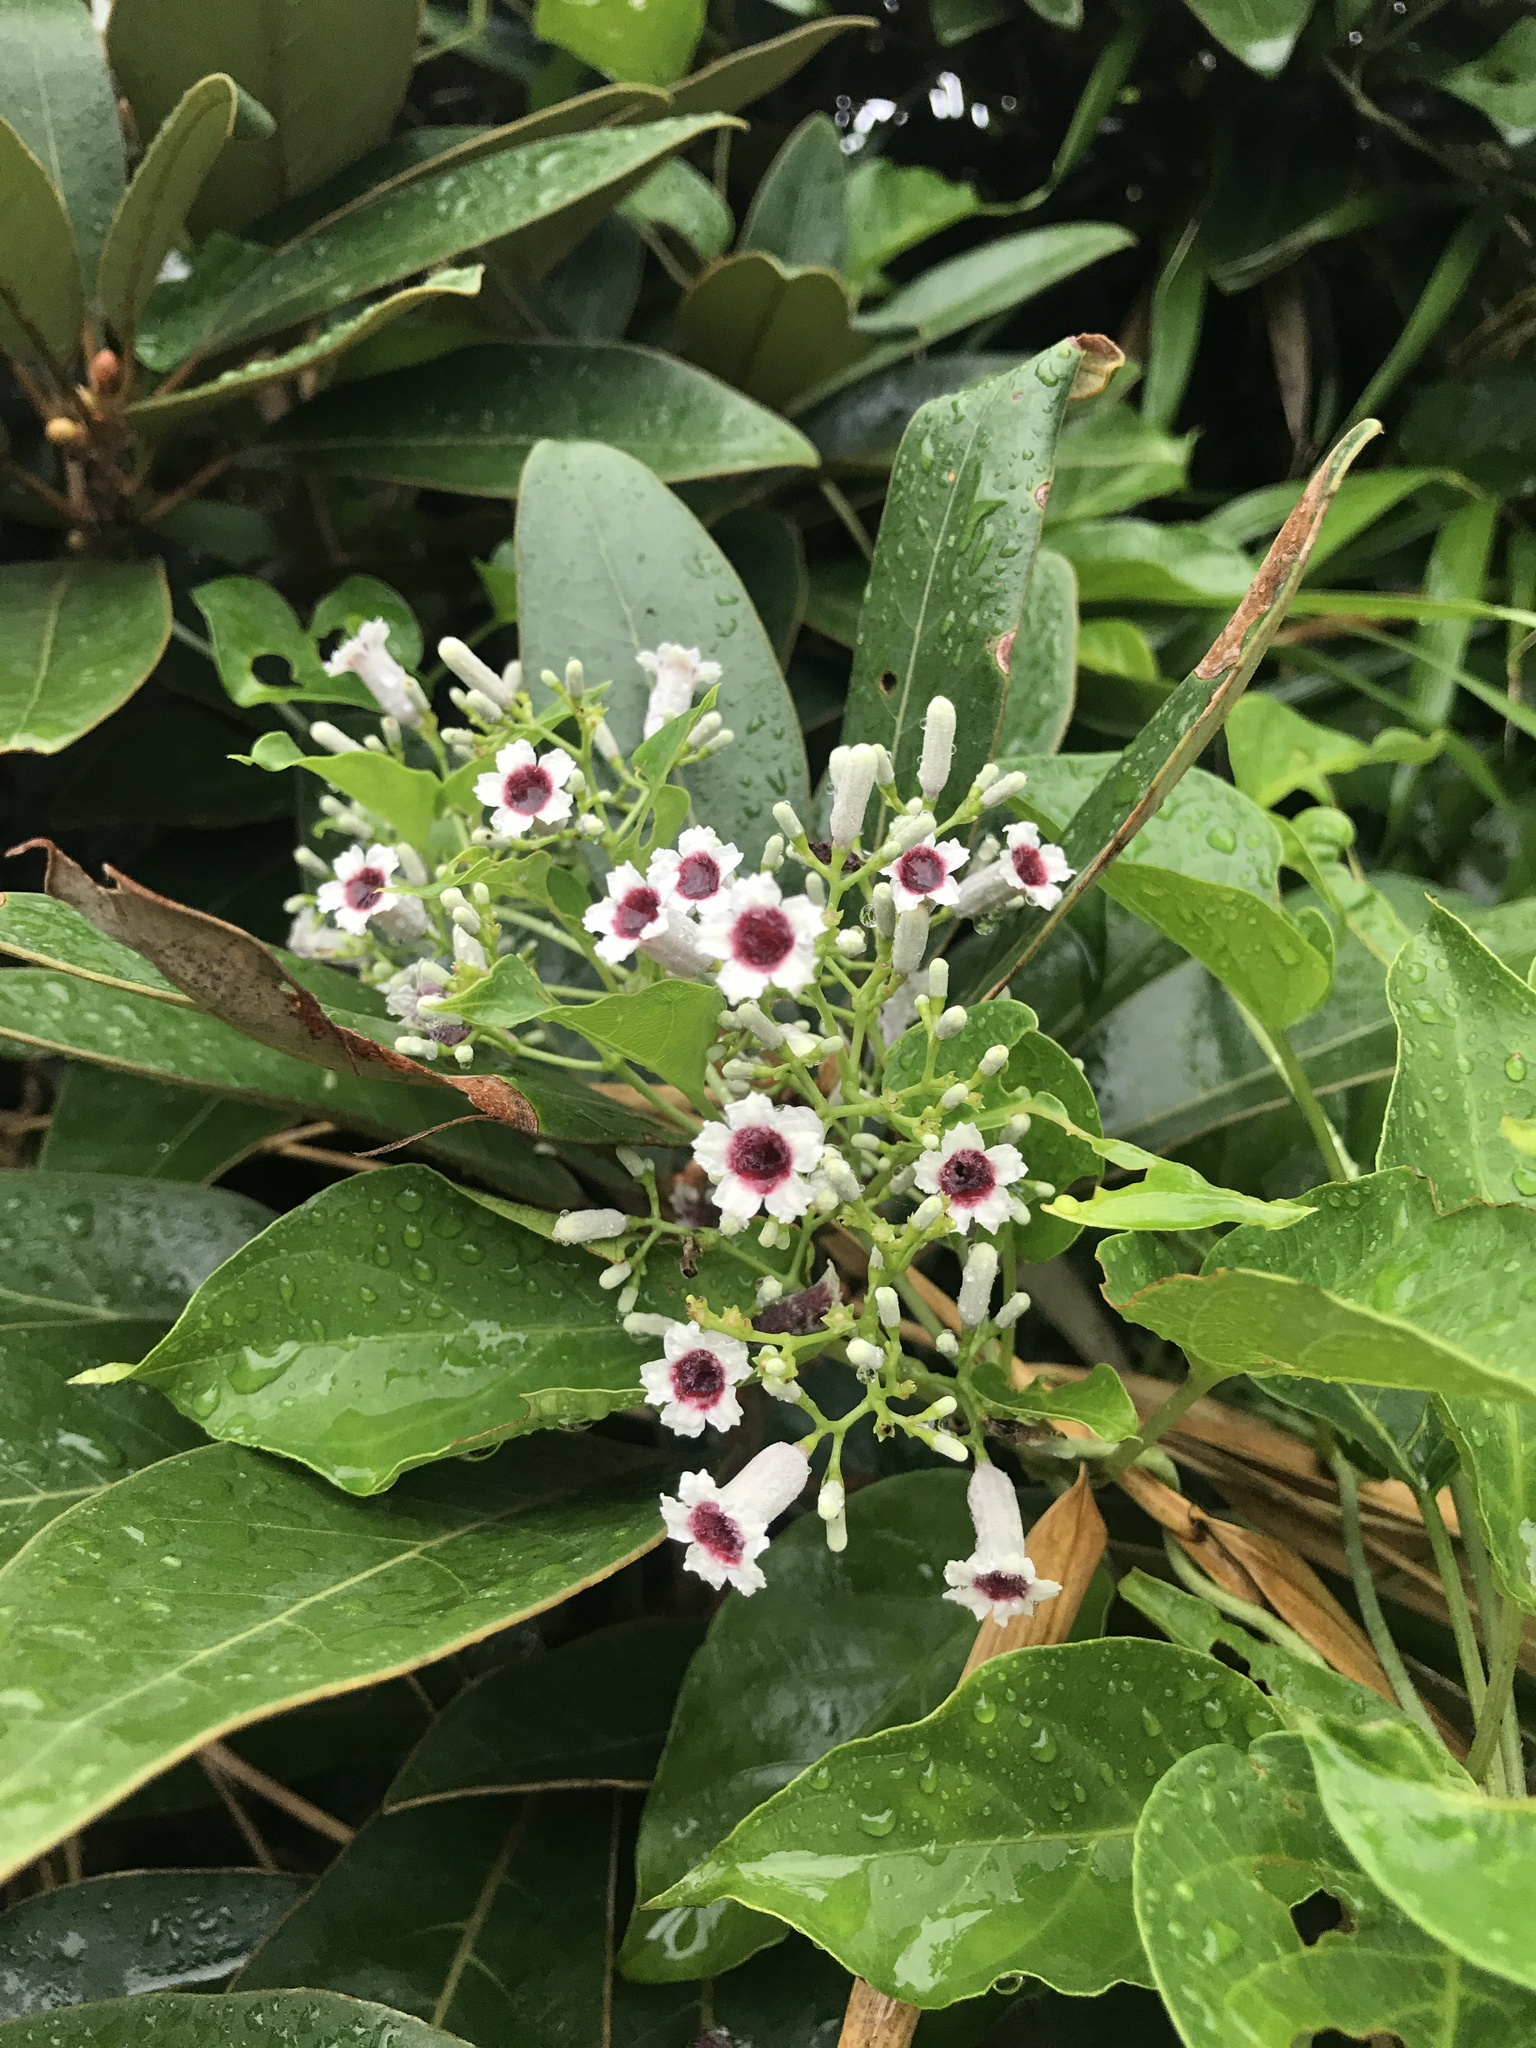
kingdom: Plantae
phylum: Tracheophyta
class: Magnoliopsida
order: Gentianales
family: Rubiaceae
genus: Paederia
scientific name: Paederia foetida
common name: Stinkvine
